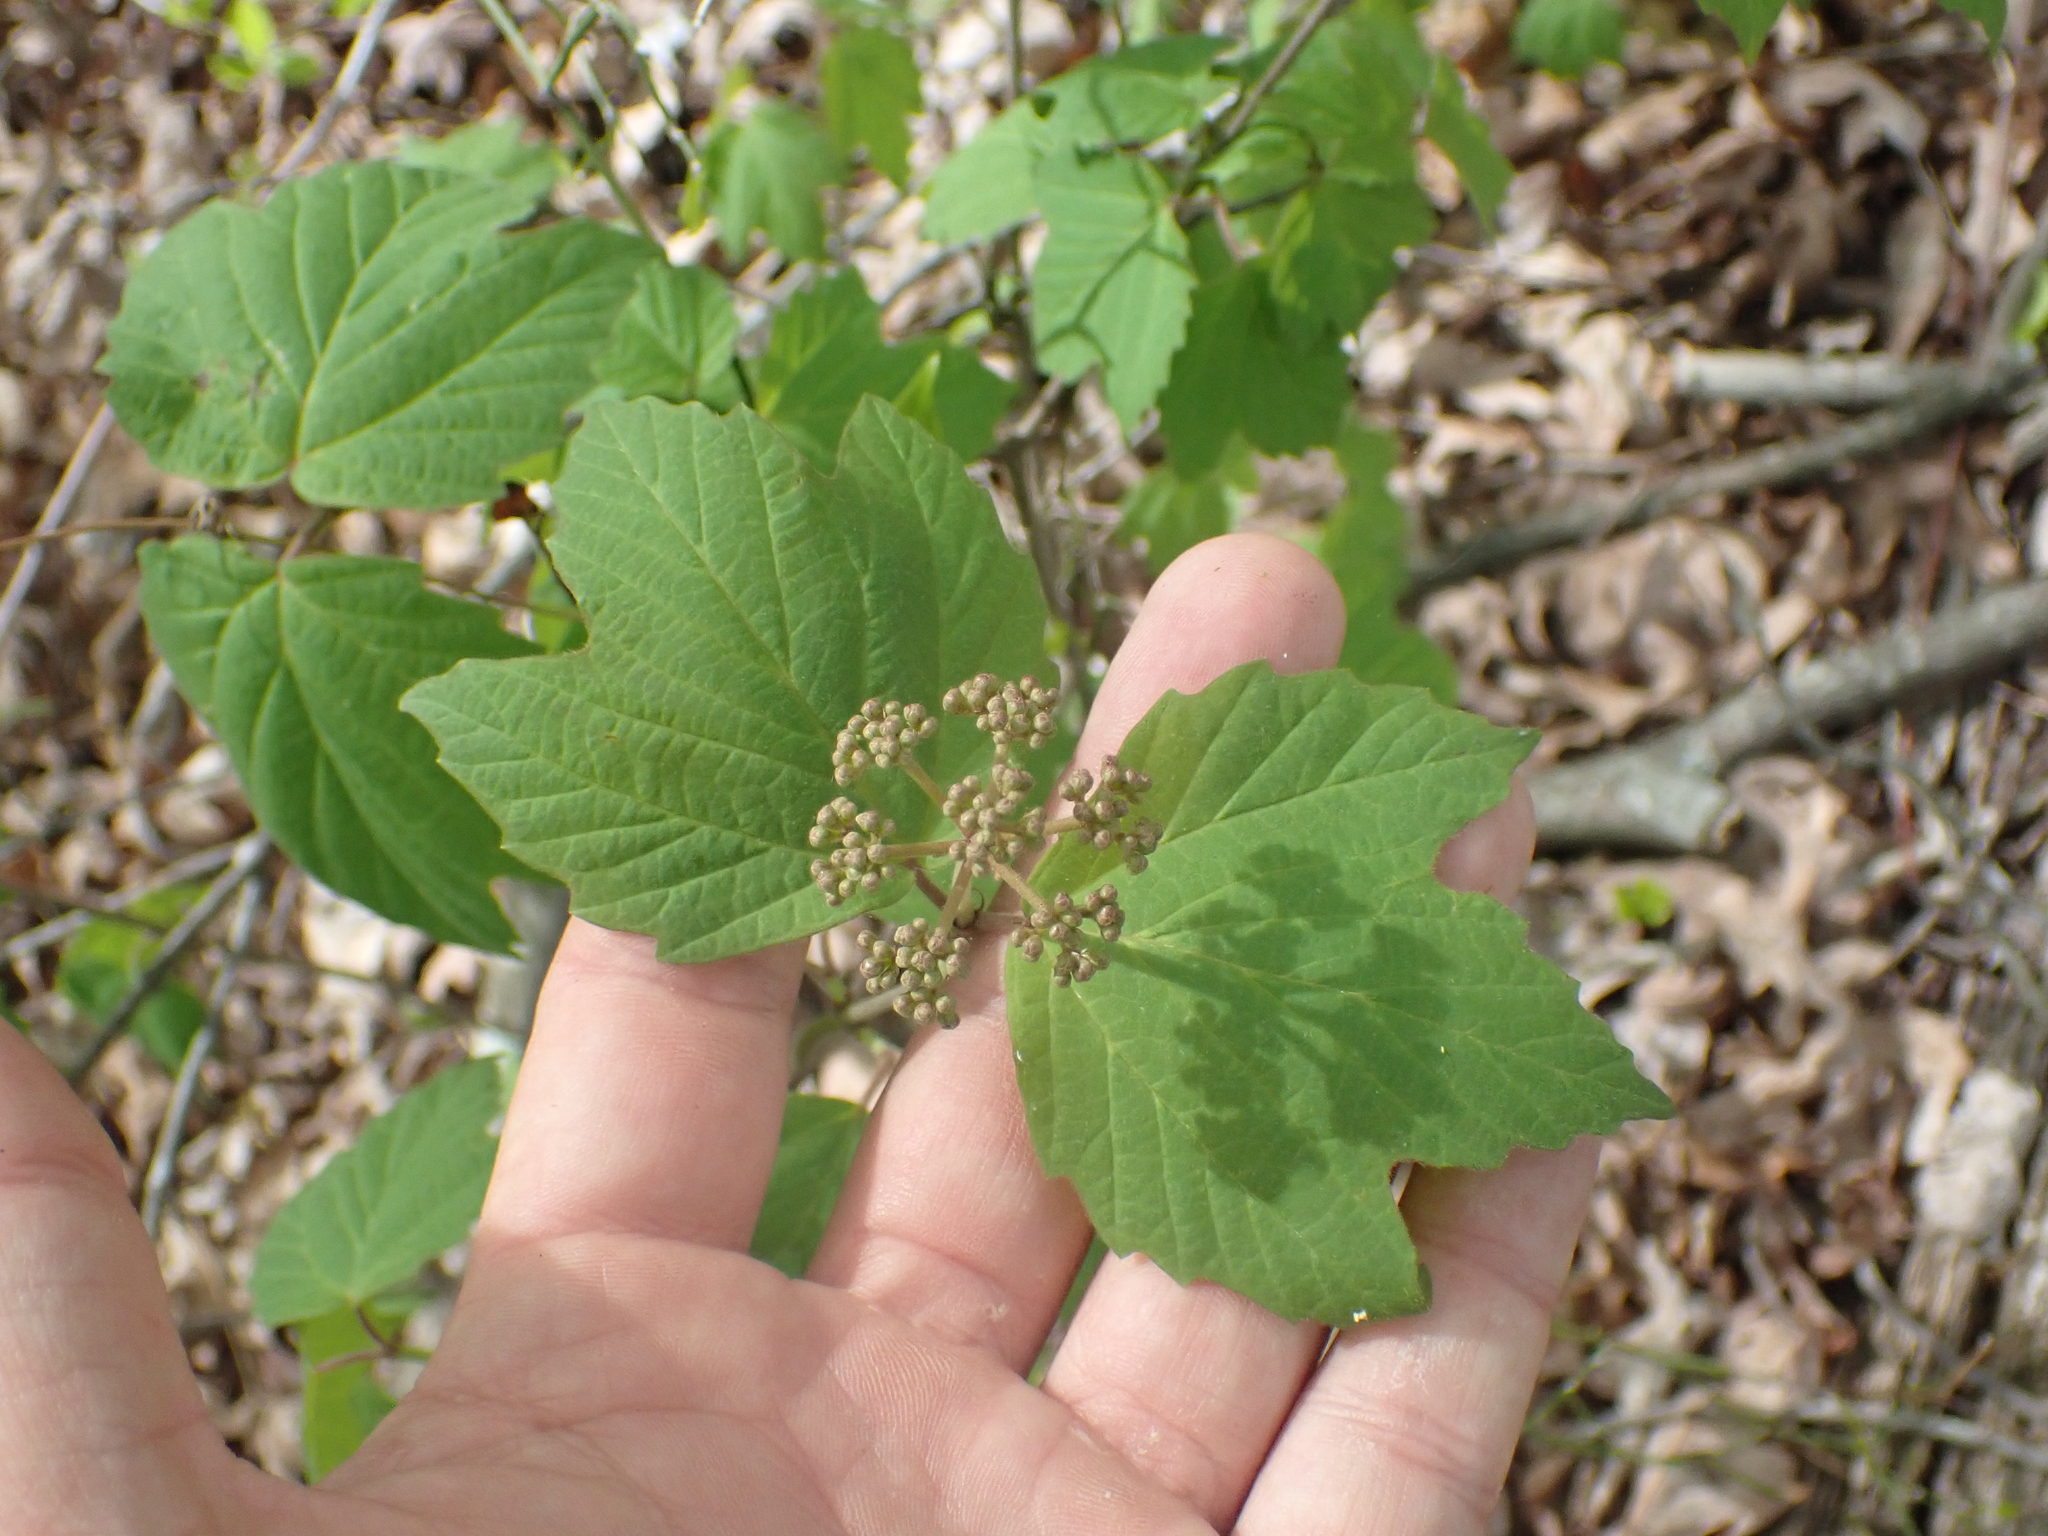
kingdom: Plantae
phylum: Tracheophyta
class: Magnoliopsida
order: Dipsacales
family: Viburnaceae
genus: Viburnum
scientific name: Viburnum acerifolium
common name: Dockmackie
